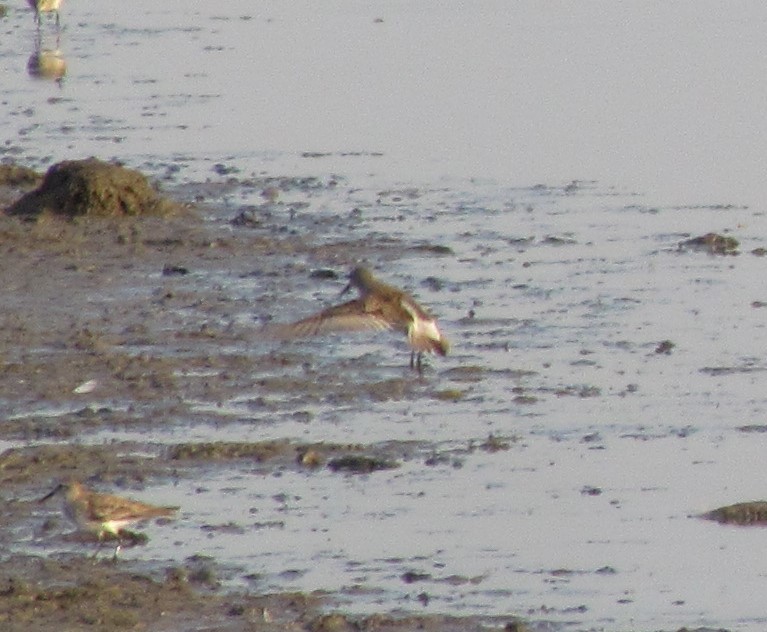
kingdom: Animalia
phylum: Chordata
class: Aves
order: Charadriiformes
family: Scolopacidae
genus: Calidris
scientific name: Calidris fuscicollis
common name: White-rumped sandpiper
